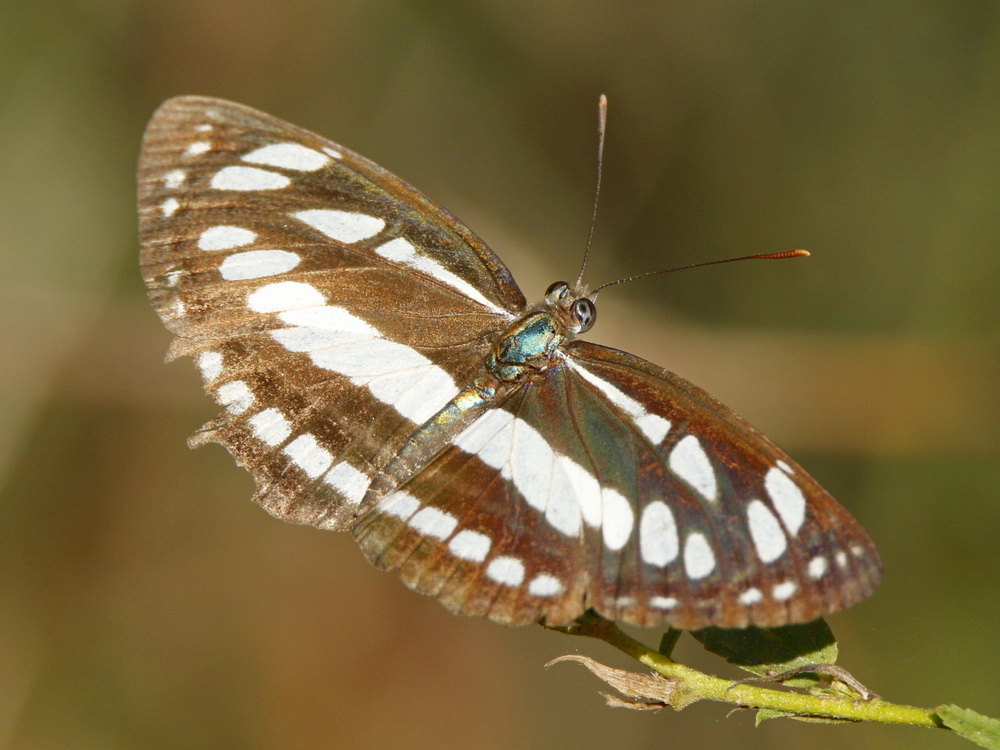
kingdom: Animalia
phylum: Arthropoda
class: Insecta
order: Lepidoptera
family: Nymphalidae
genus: Neptis
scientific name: Neptis hylas
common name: Common sailer
